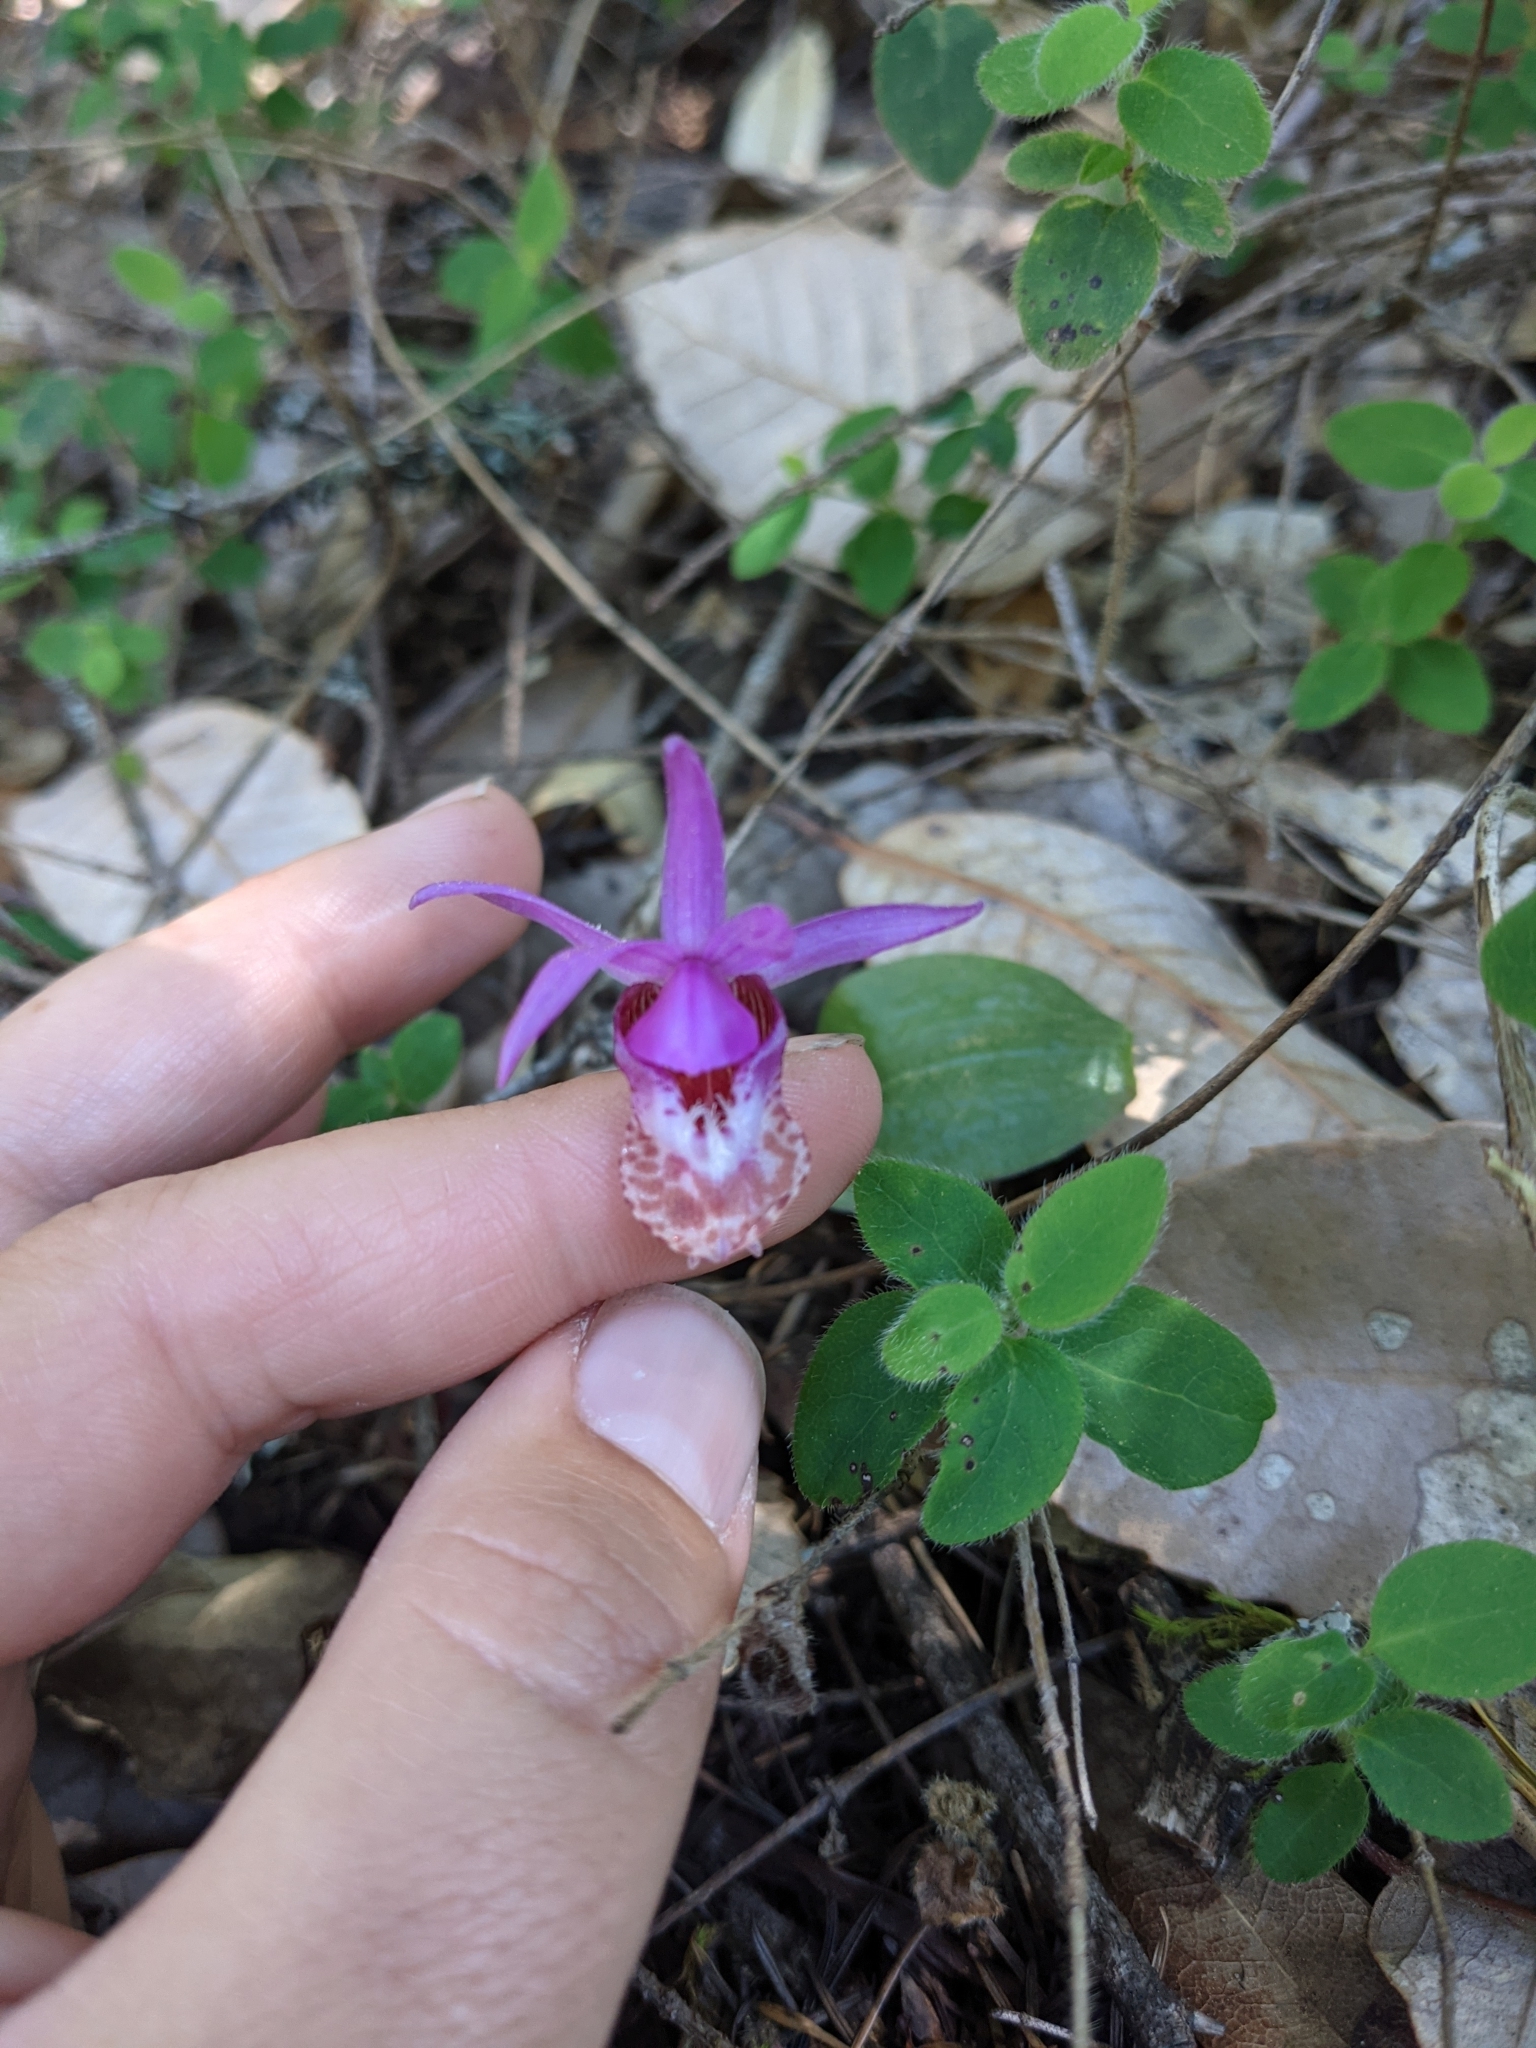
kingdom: Plantae
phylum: Tracheophyta
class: Liliopsida
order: Asparagales
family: Orchidaceae
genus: Calypso
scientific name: Calypso bulbosa
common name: Calypso
